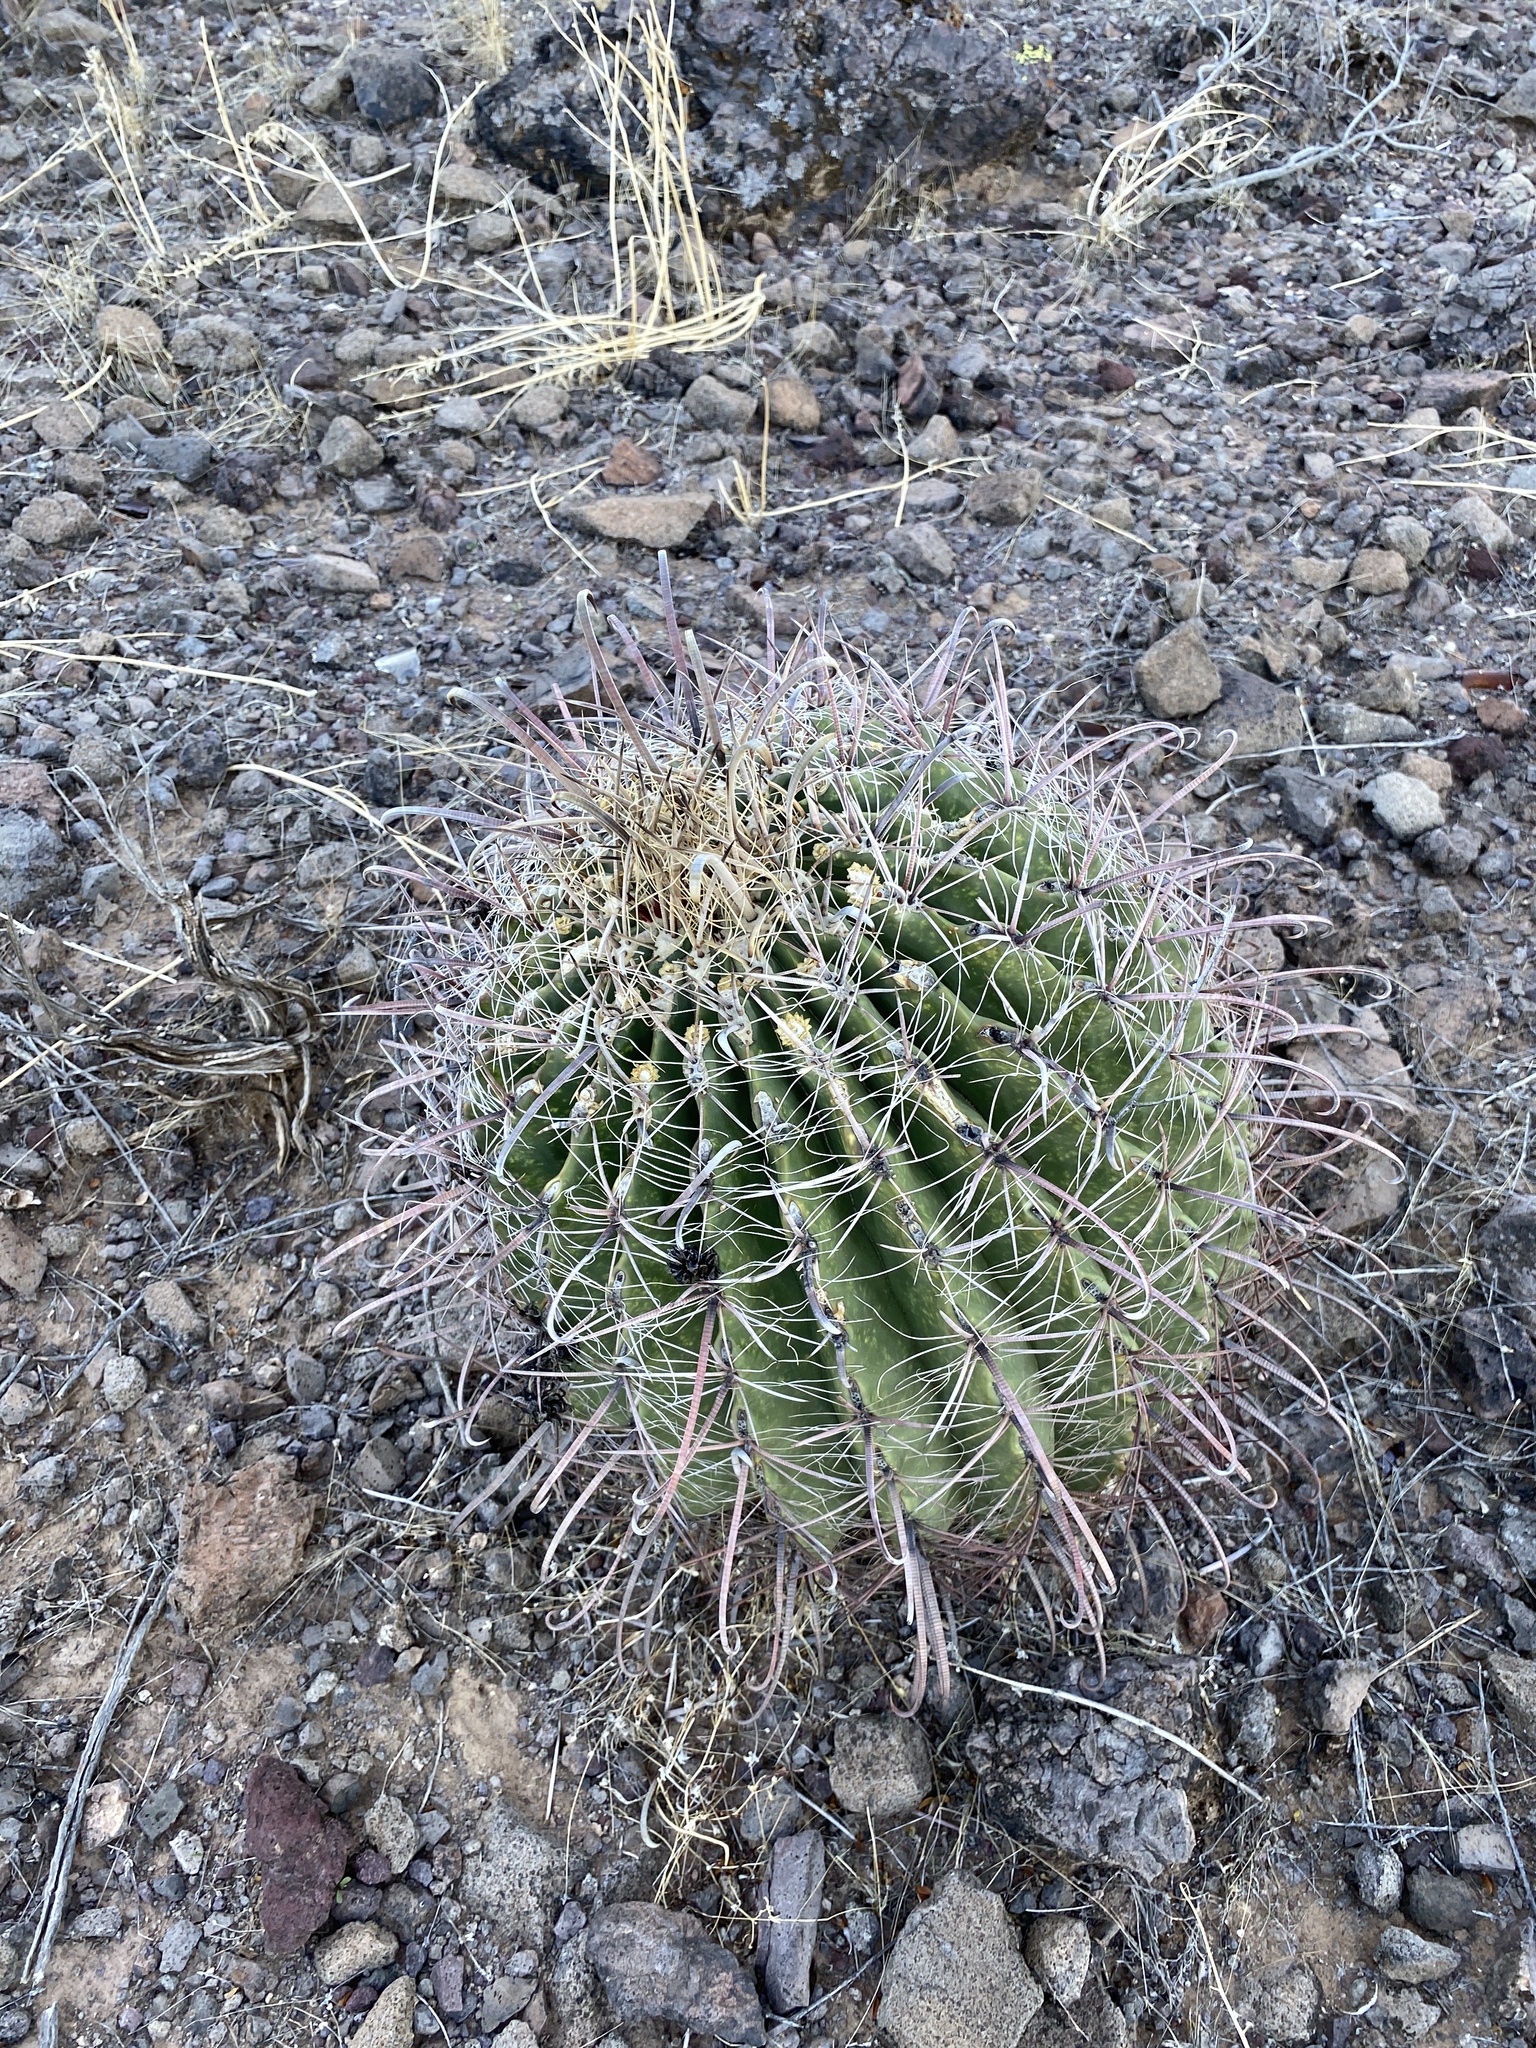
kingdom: Plantae
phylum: Tracheophyta
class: Magnoliopsida
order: Caryophyllales
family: Cactaceae
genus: Ferocactus
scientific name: Ferocactus wislizeni
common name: Candy barrel cactus
